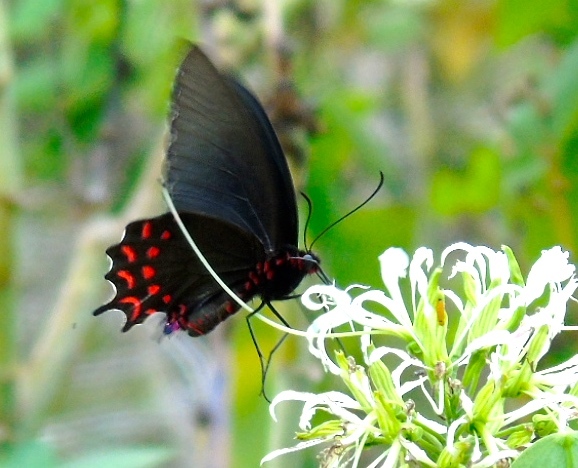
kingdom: Animalia
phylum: Arthropoda
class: Insecta
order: Lepidoptera
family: Papilionidae
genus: Parides
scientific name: Parides photinus
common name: Pink-spotted cattleheart
